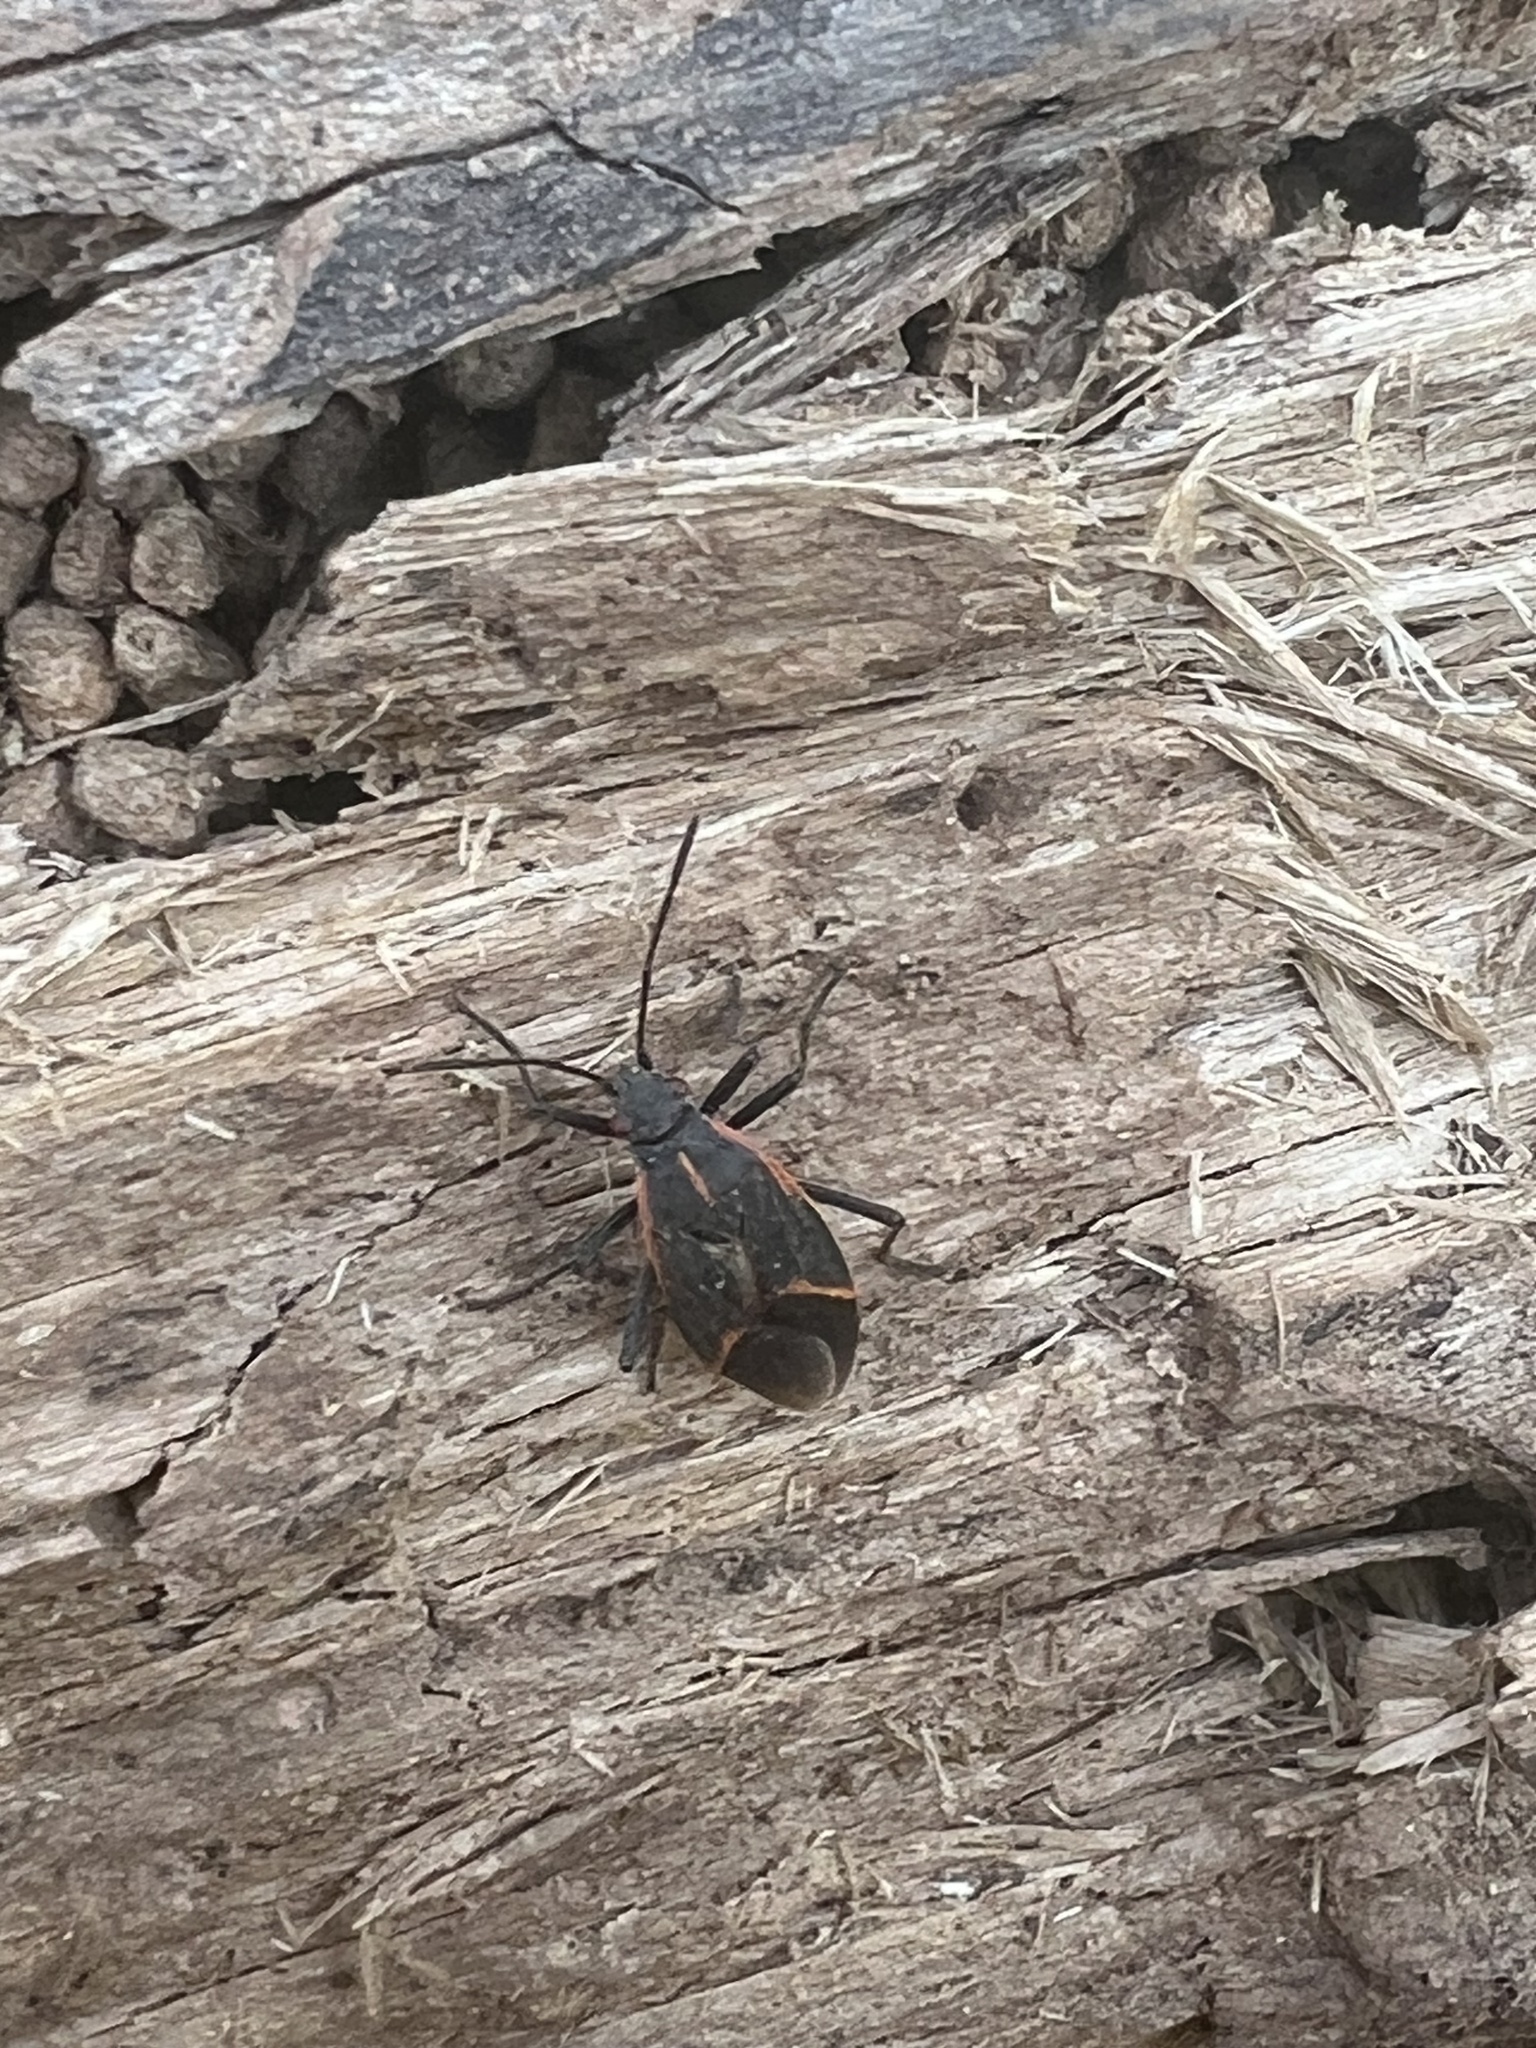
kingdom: Animalia
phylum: Arthropoda
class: Insecta
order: Hemiptera
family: Rhopalidae
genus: Boisea
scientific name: Boisea trivittata
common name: Boxelder bug
